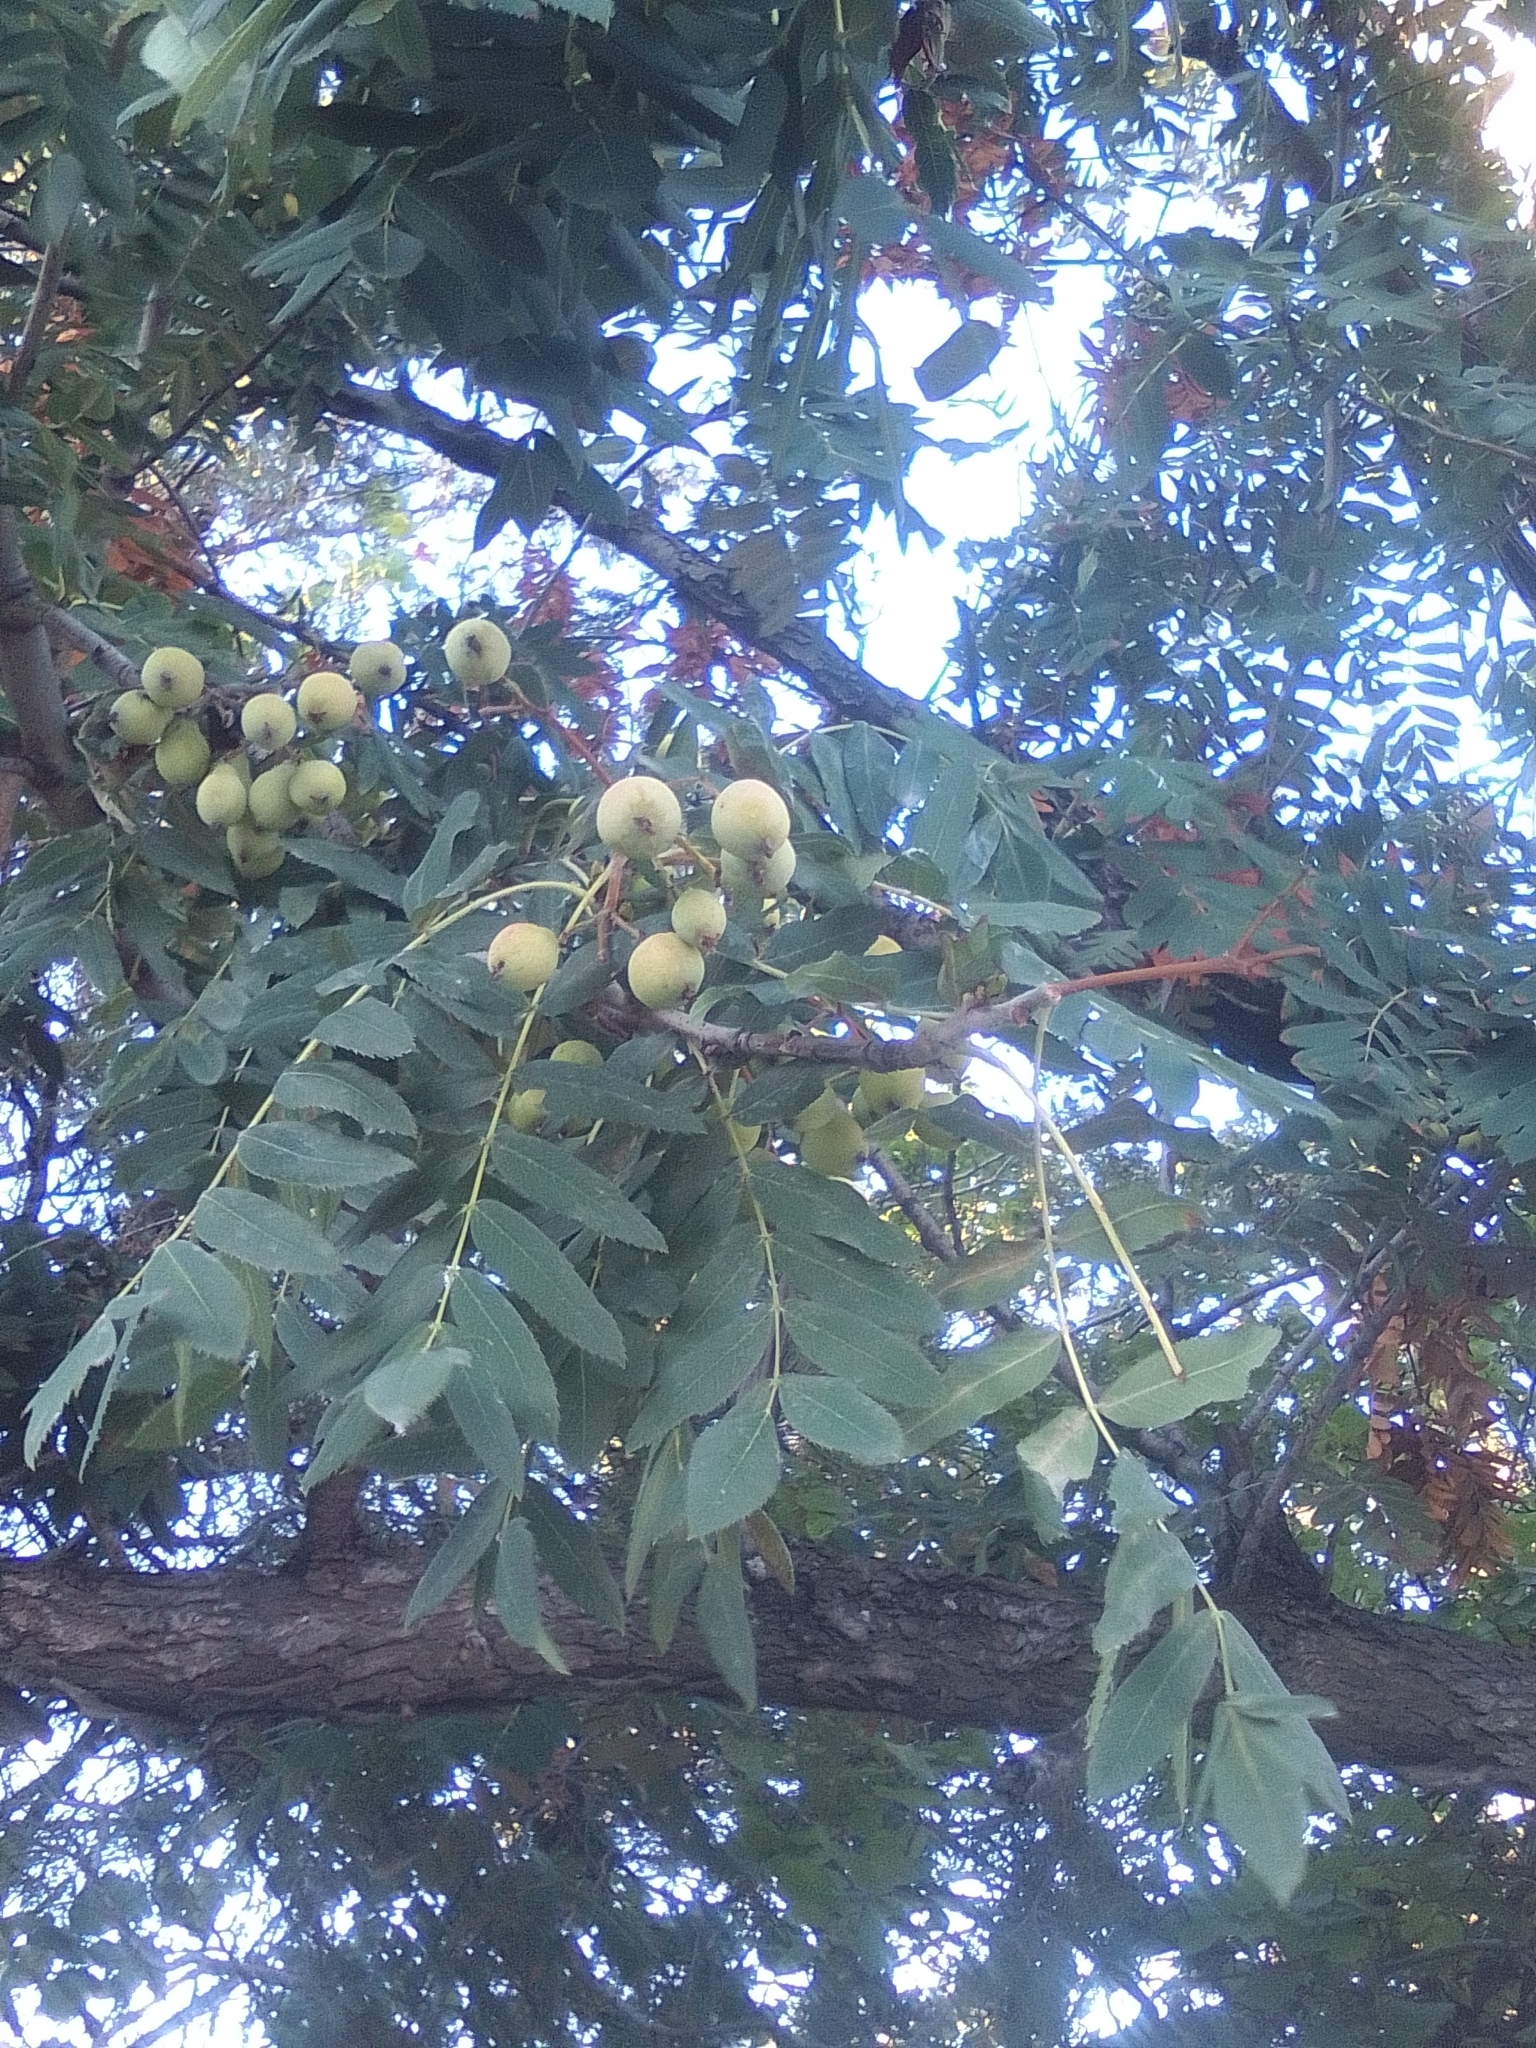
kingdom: Plantae
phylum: Tracheophyta
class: Magnoliopsida
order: Rosales
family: Rosaceae
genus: Cormus
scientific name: Cormus domestica
